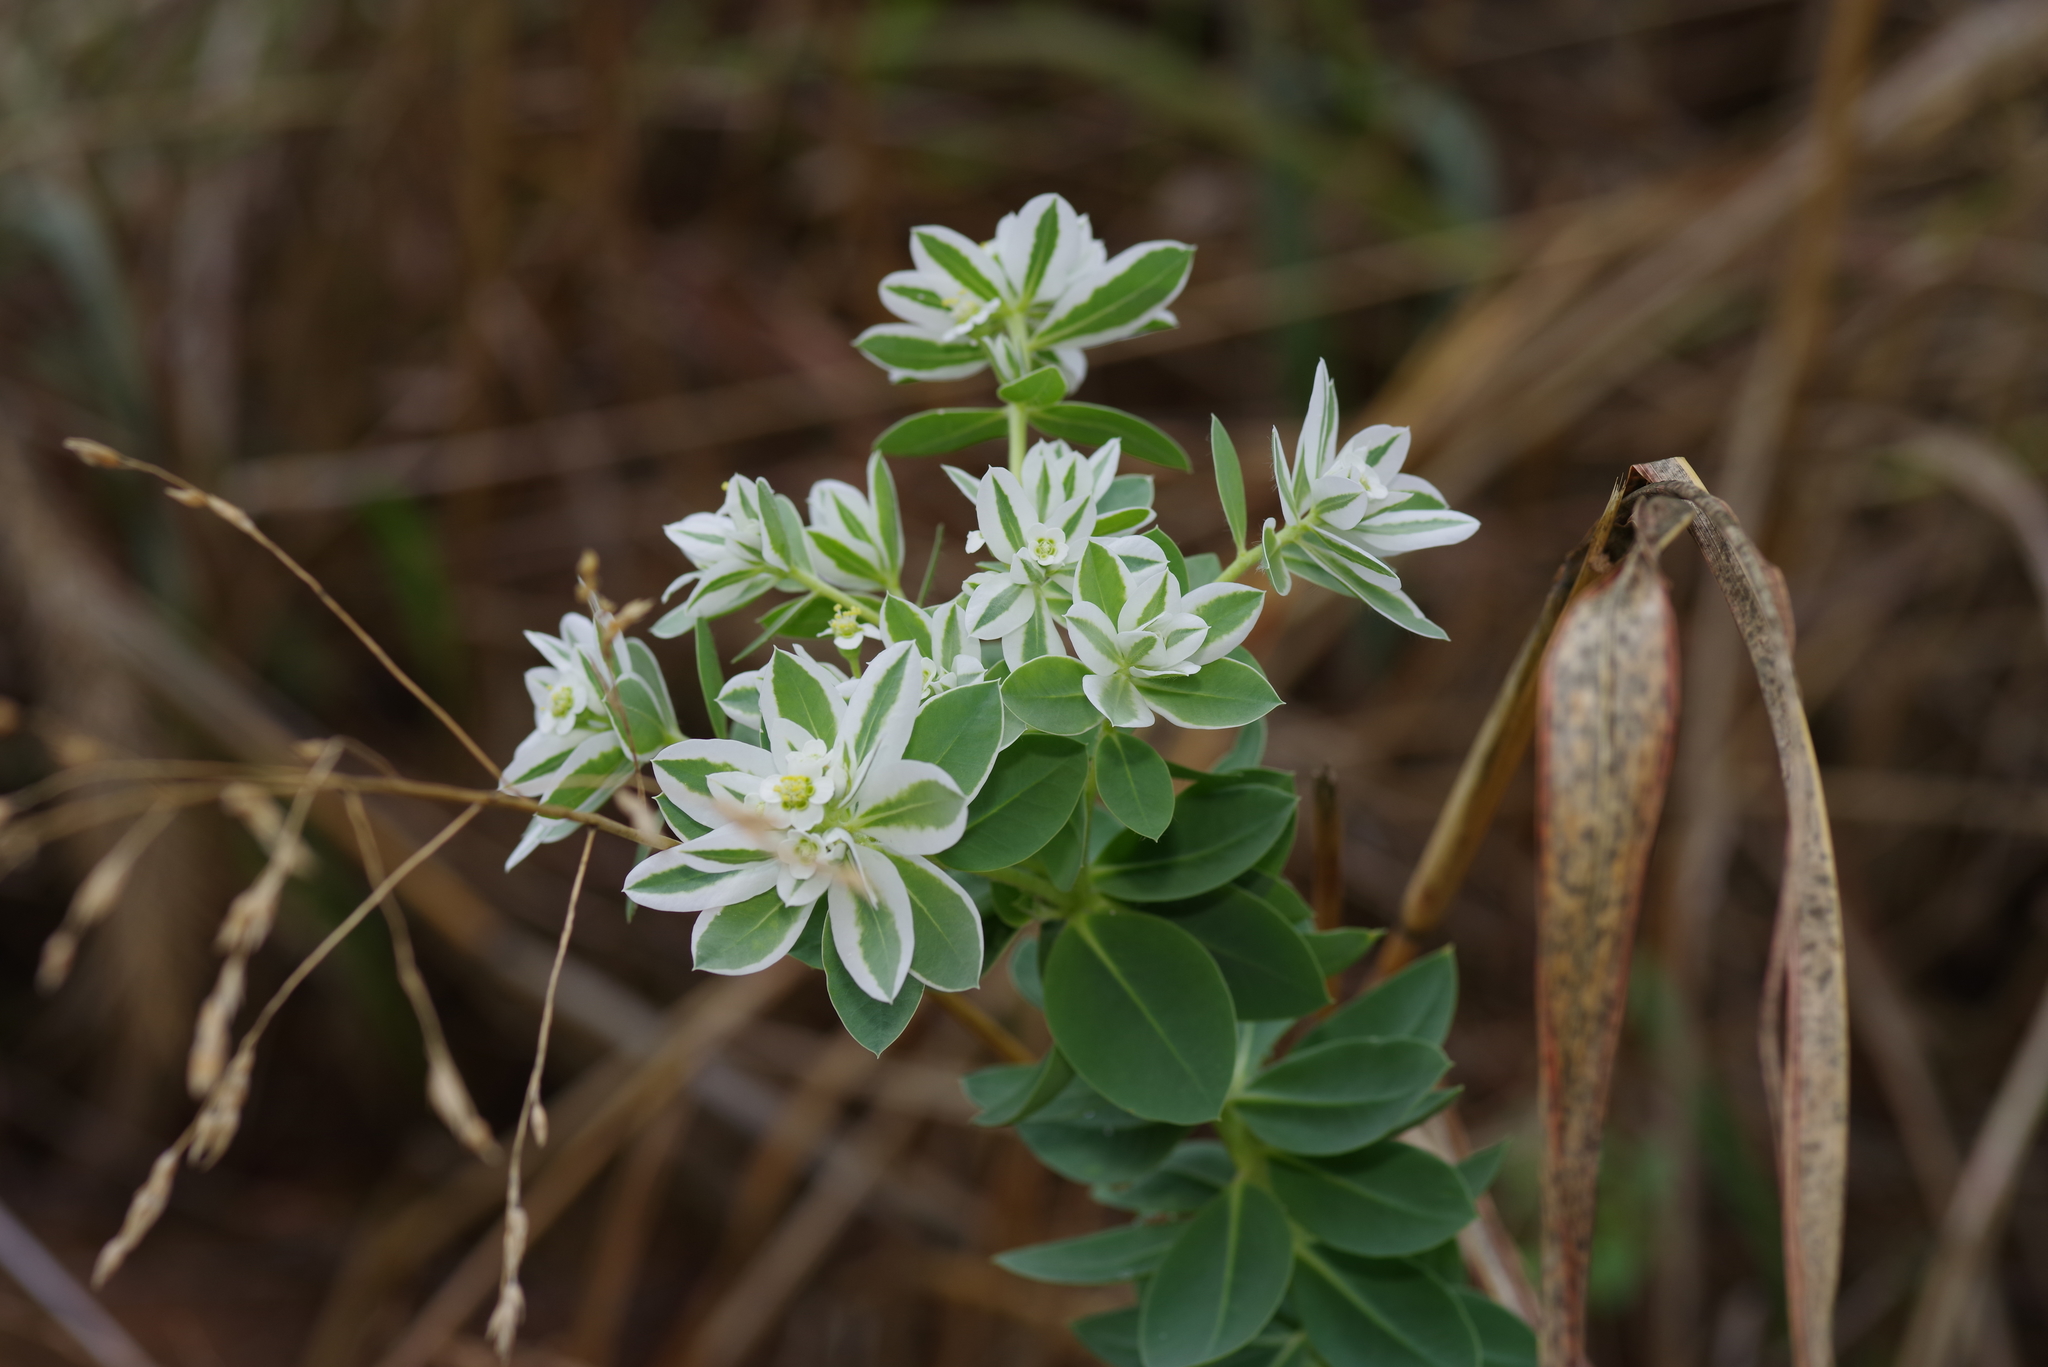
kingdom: Plantae
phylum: Tracheophyta
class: Magnoliopsida
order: Malpighiales
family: Euphorbiaceae
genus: Euphorbia
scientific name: Euphorbia marginata
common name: Ghostweed
